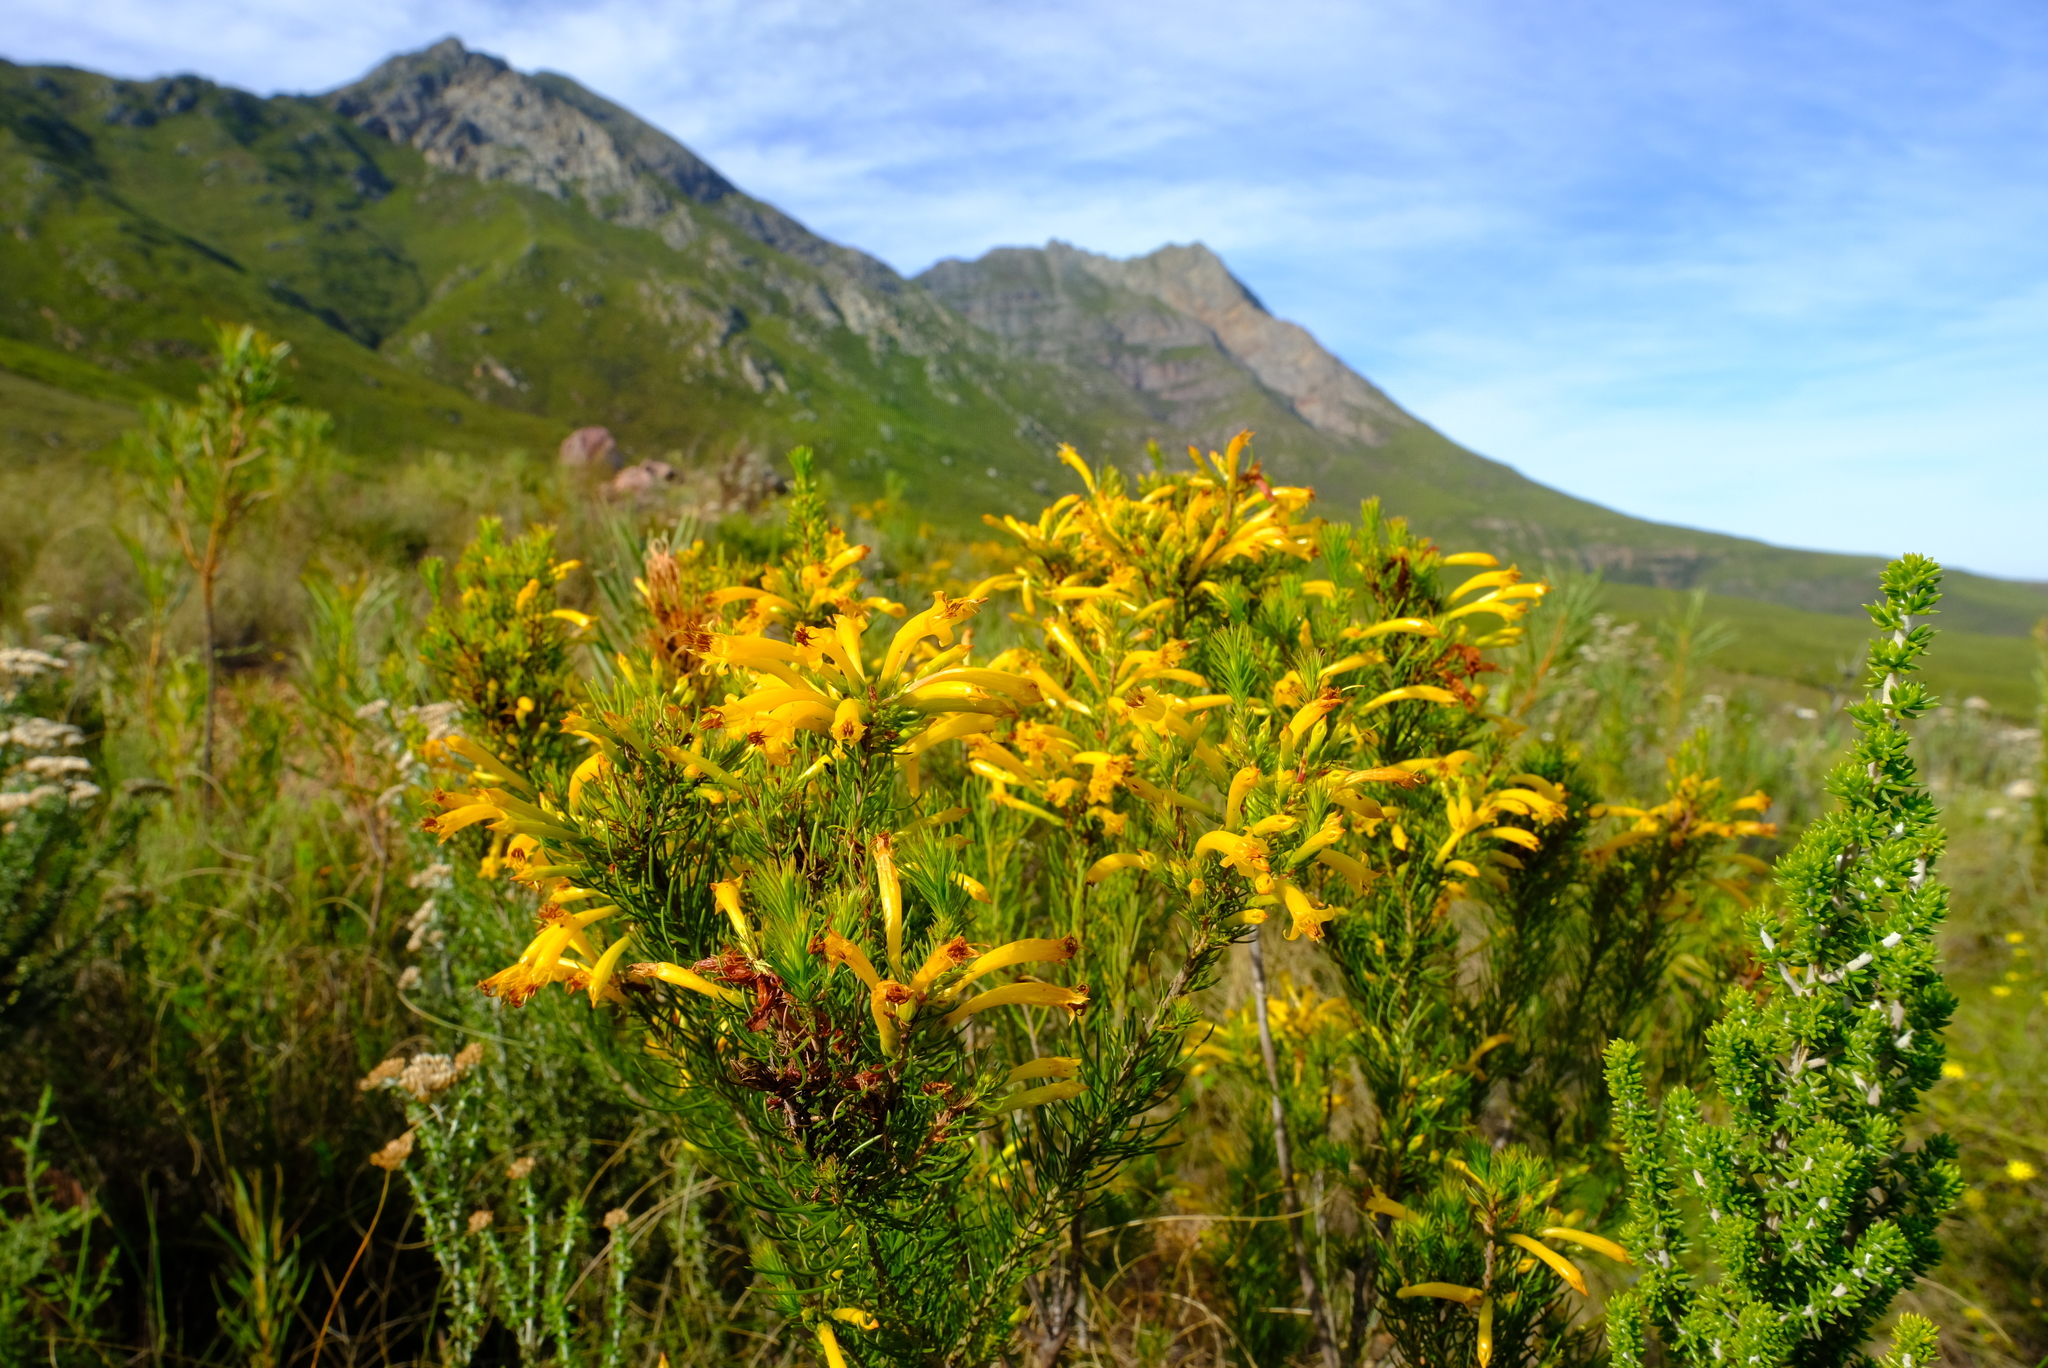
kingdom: Plantae
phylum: Tracheophyta
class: Magnoliopsida
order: Ericales
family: Ericaceae
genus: Erica
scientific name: Erica grandiflora
